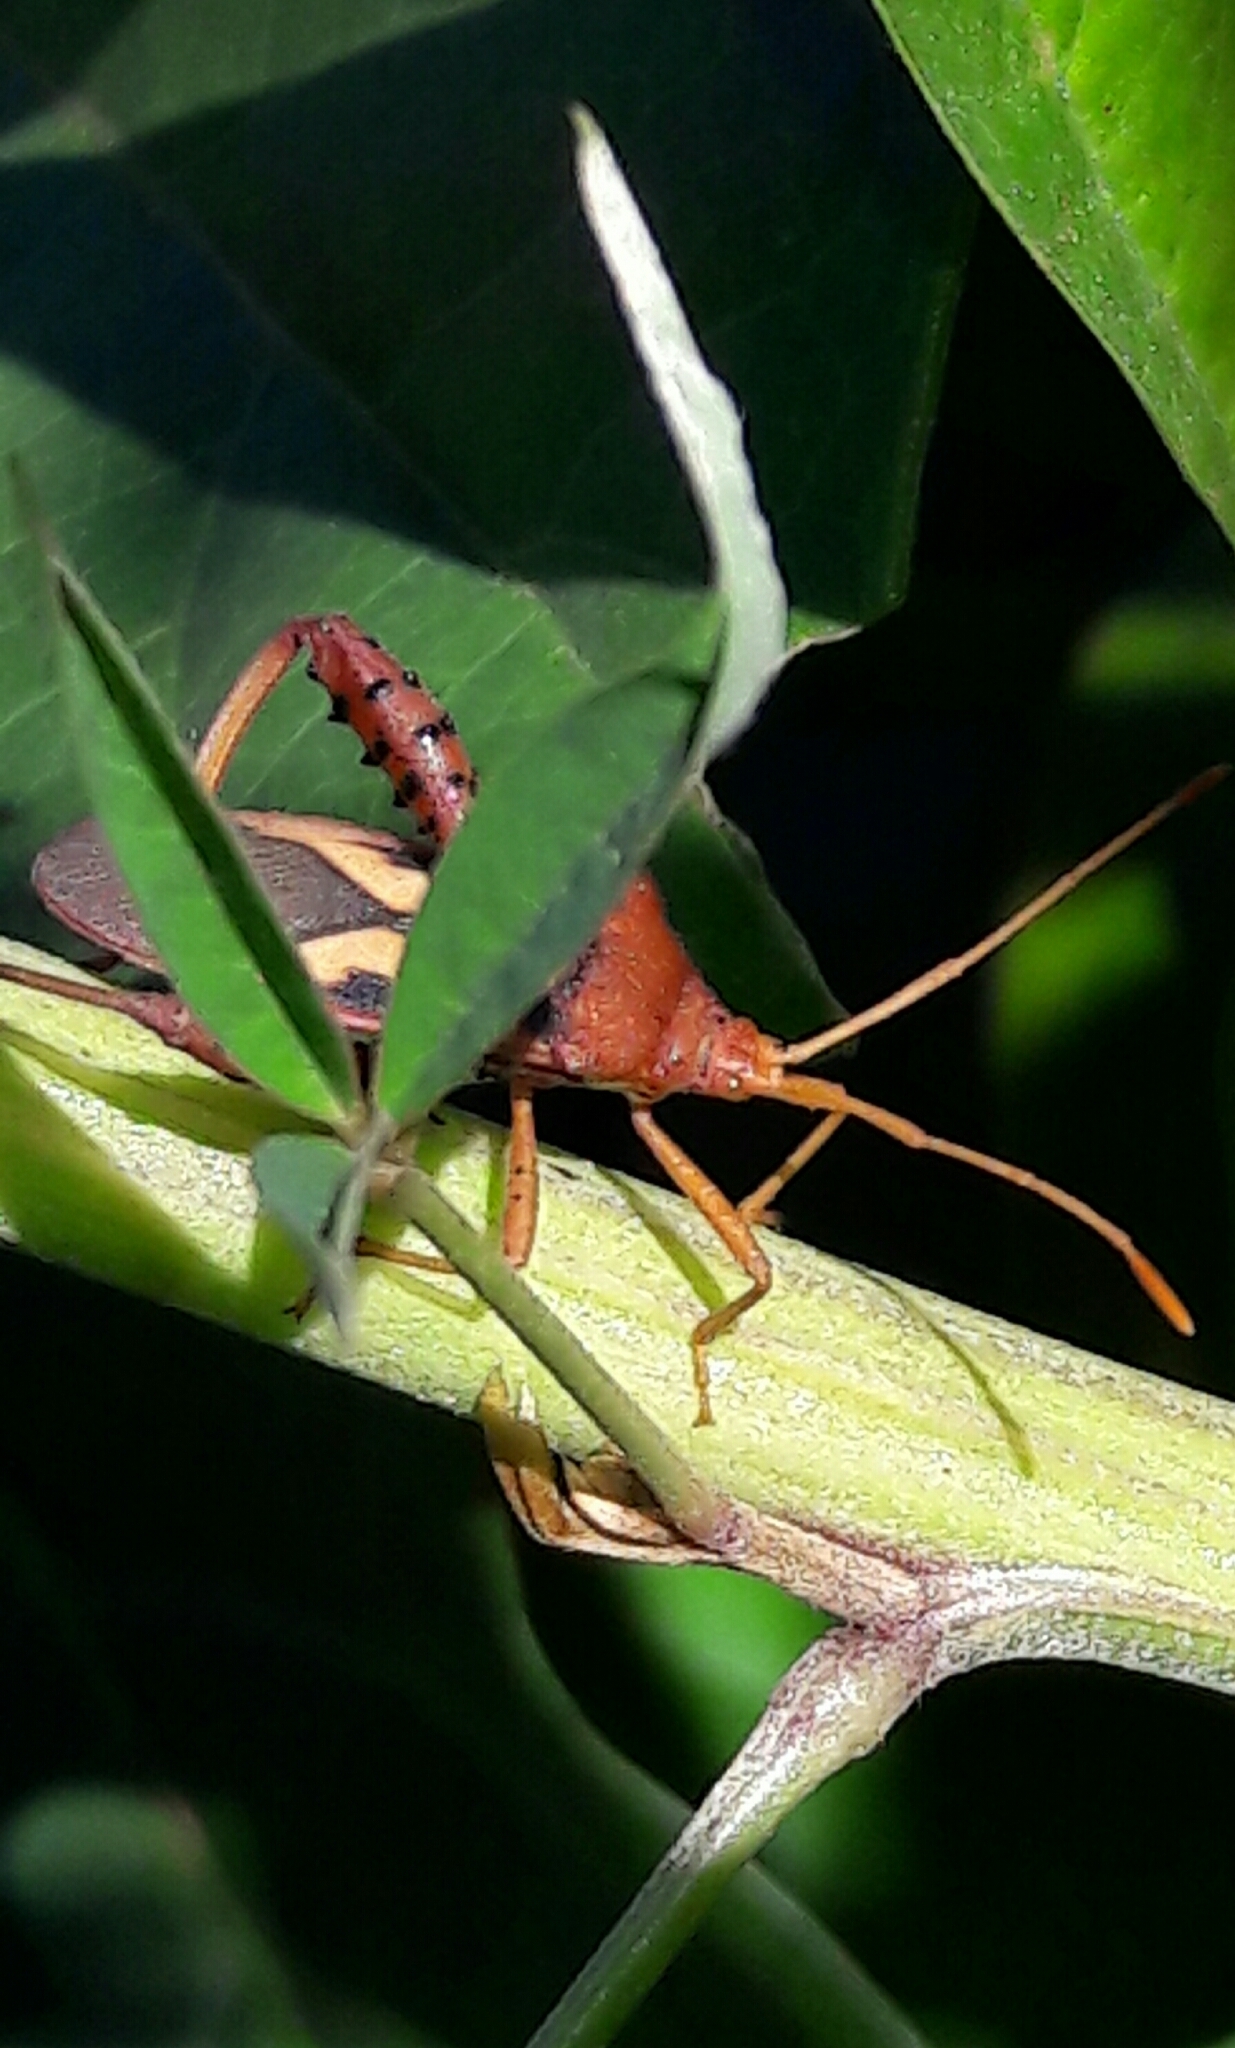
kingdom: Animalia
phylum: Arthropoda
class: Insecta
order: Hemiptera
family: Coreidae
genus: Crinocerus
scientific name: Crinocerus sanctus
